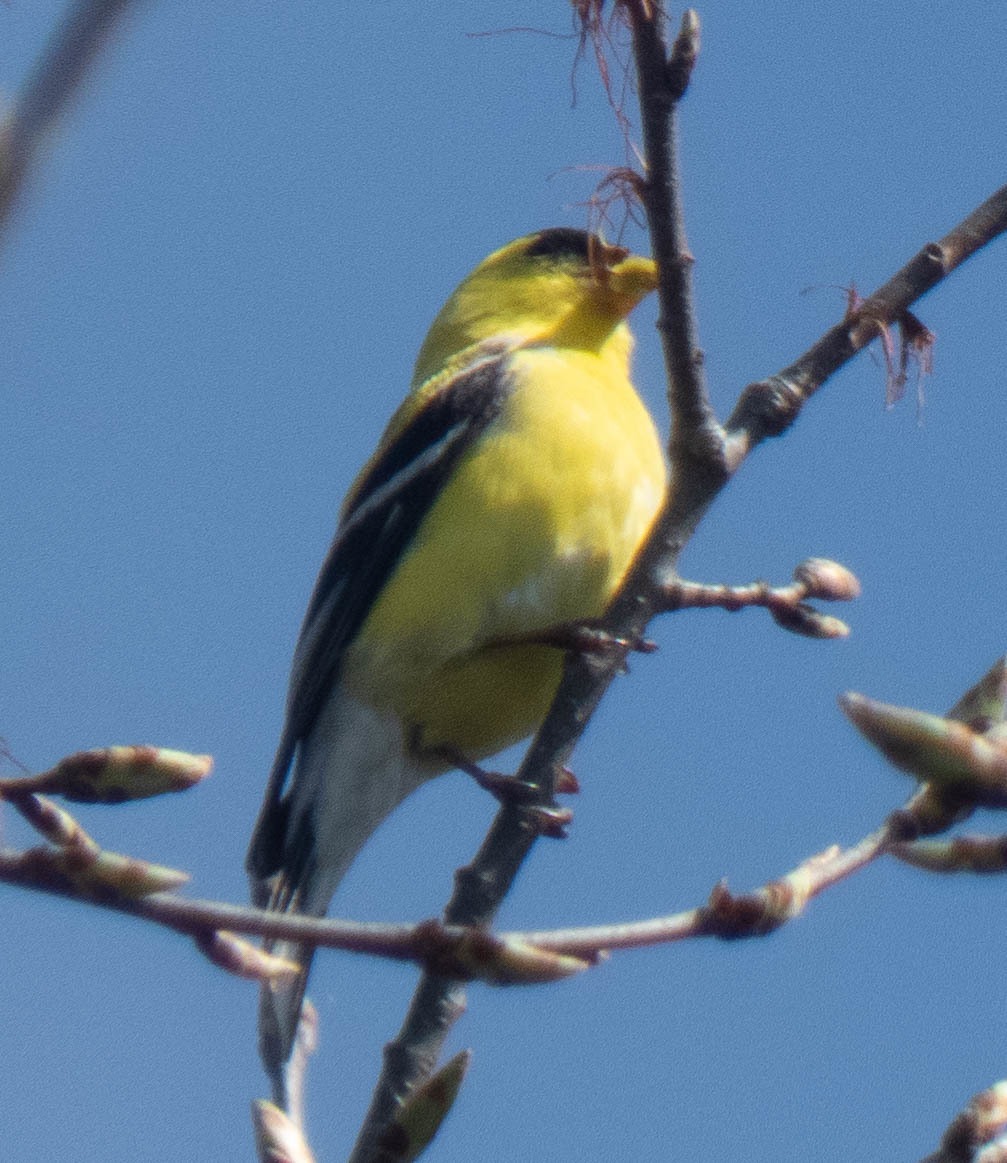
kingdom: Animalia
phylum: Chordata
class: Aves
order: Passeriformes
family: Fringillidae
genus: Spinus
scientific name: Spinus tristis
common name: American goldfinch
